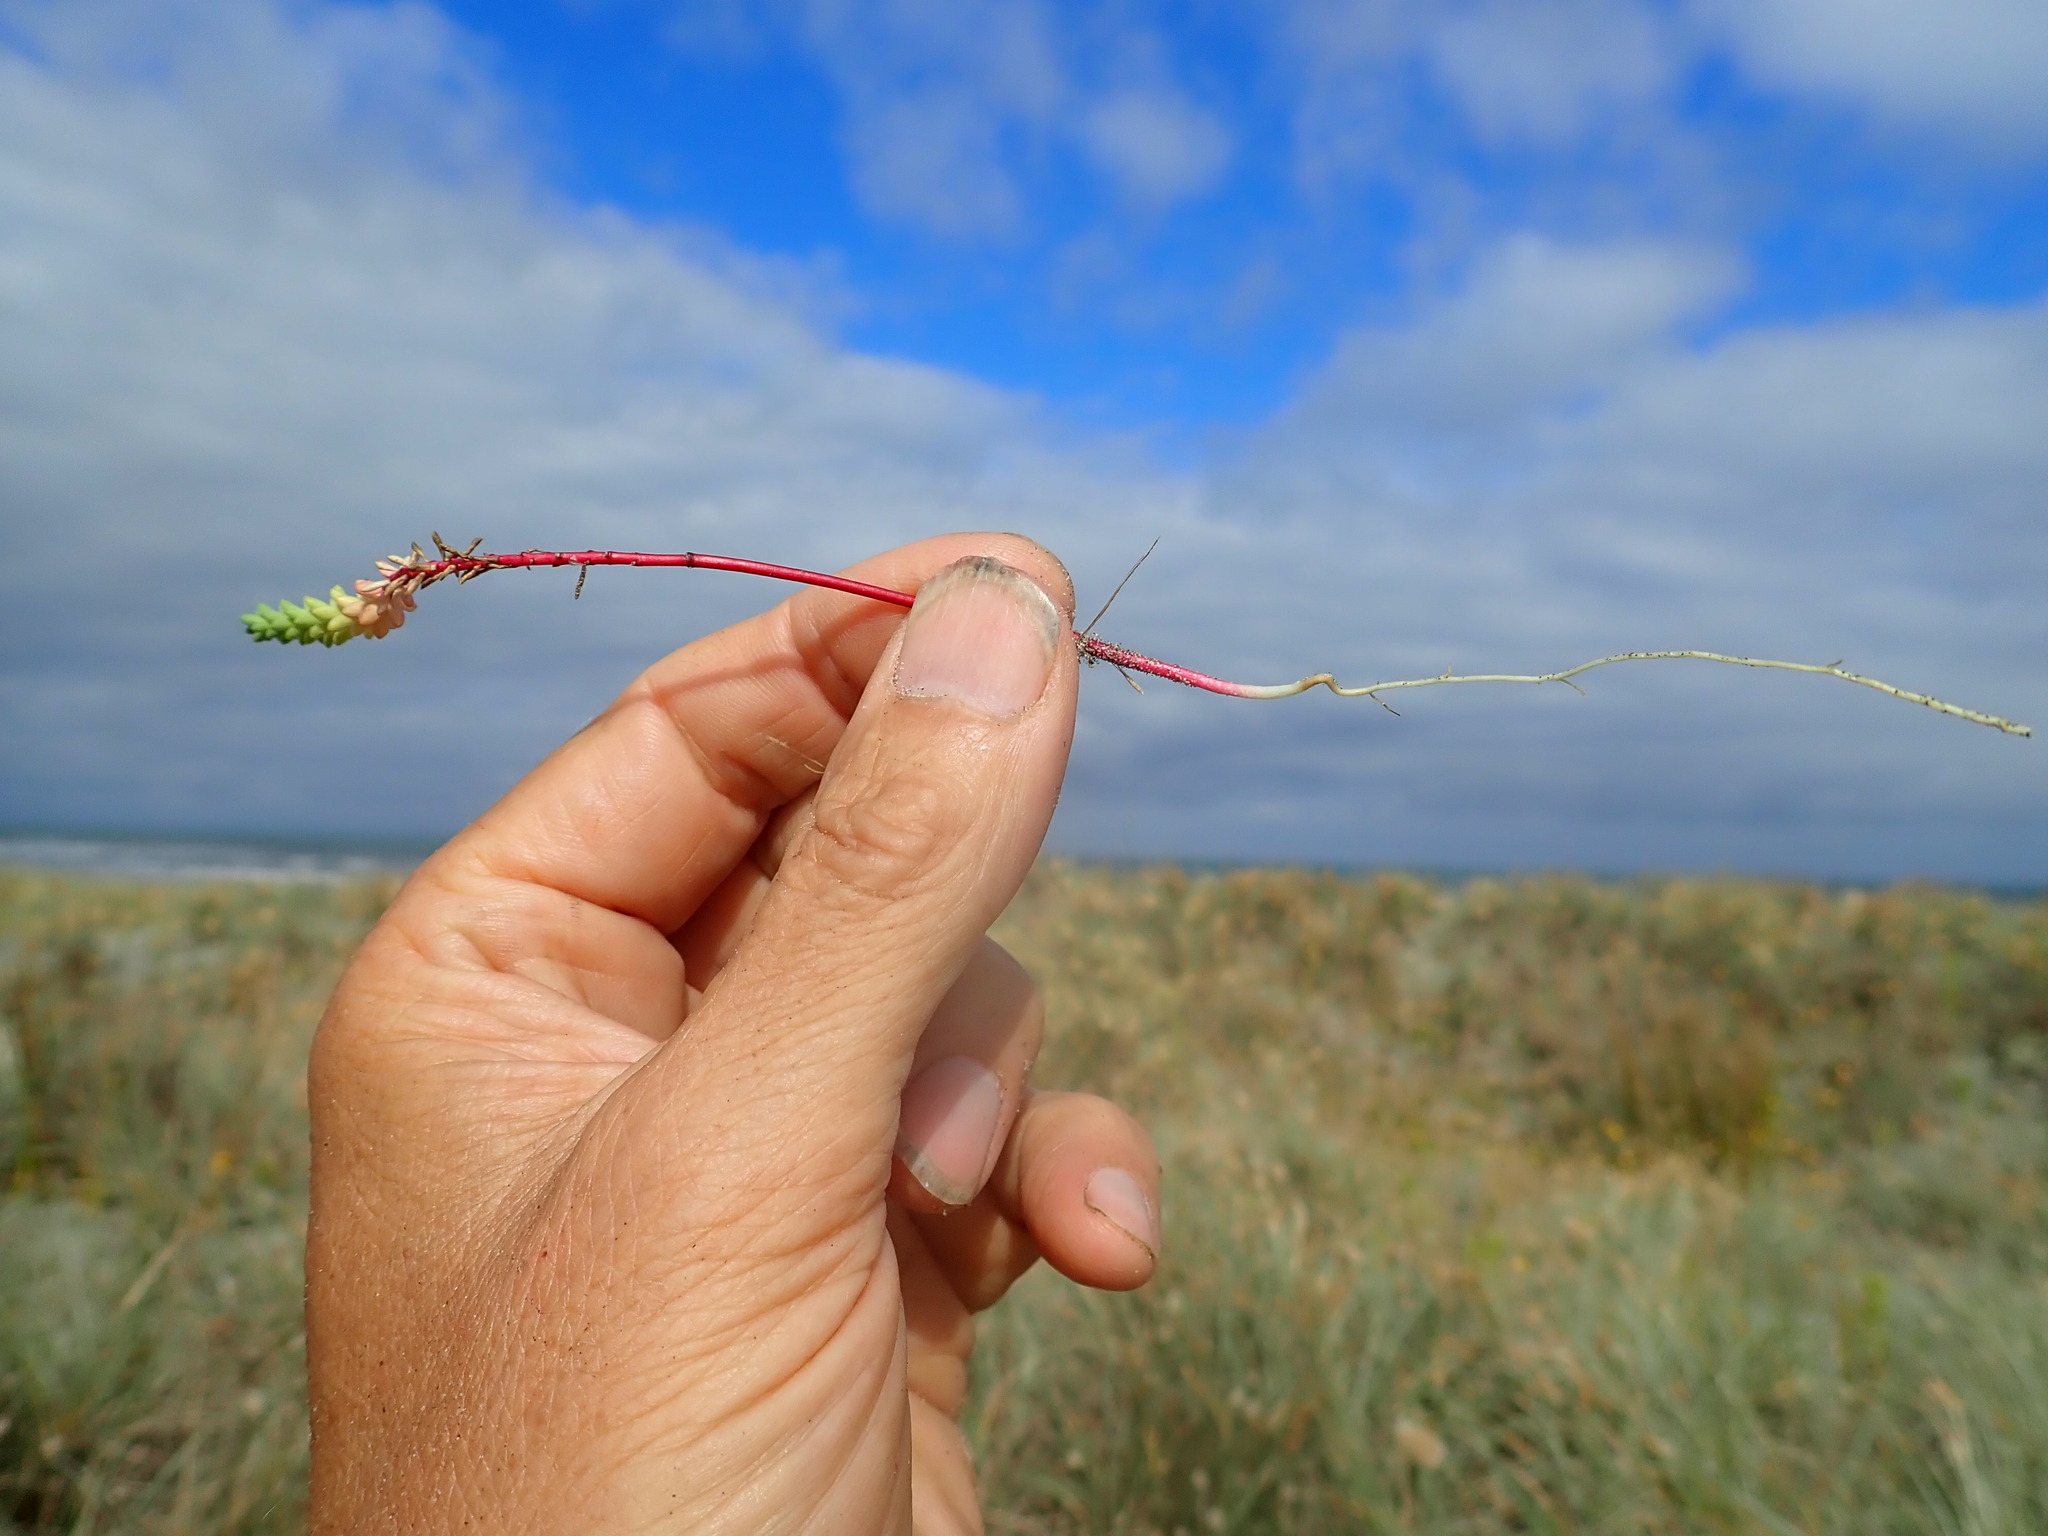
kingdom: Plantae
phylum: Tracheophyta
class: Magnoliopsida
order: Malpighiales
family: Euphorbiaceae
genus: Euphorbia
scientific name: Euphorbia paralias
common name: Sea spurge
